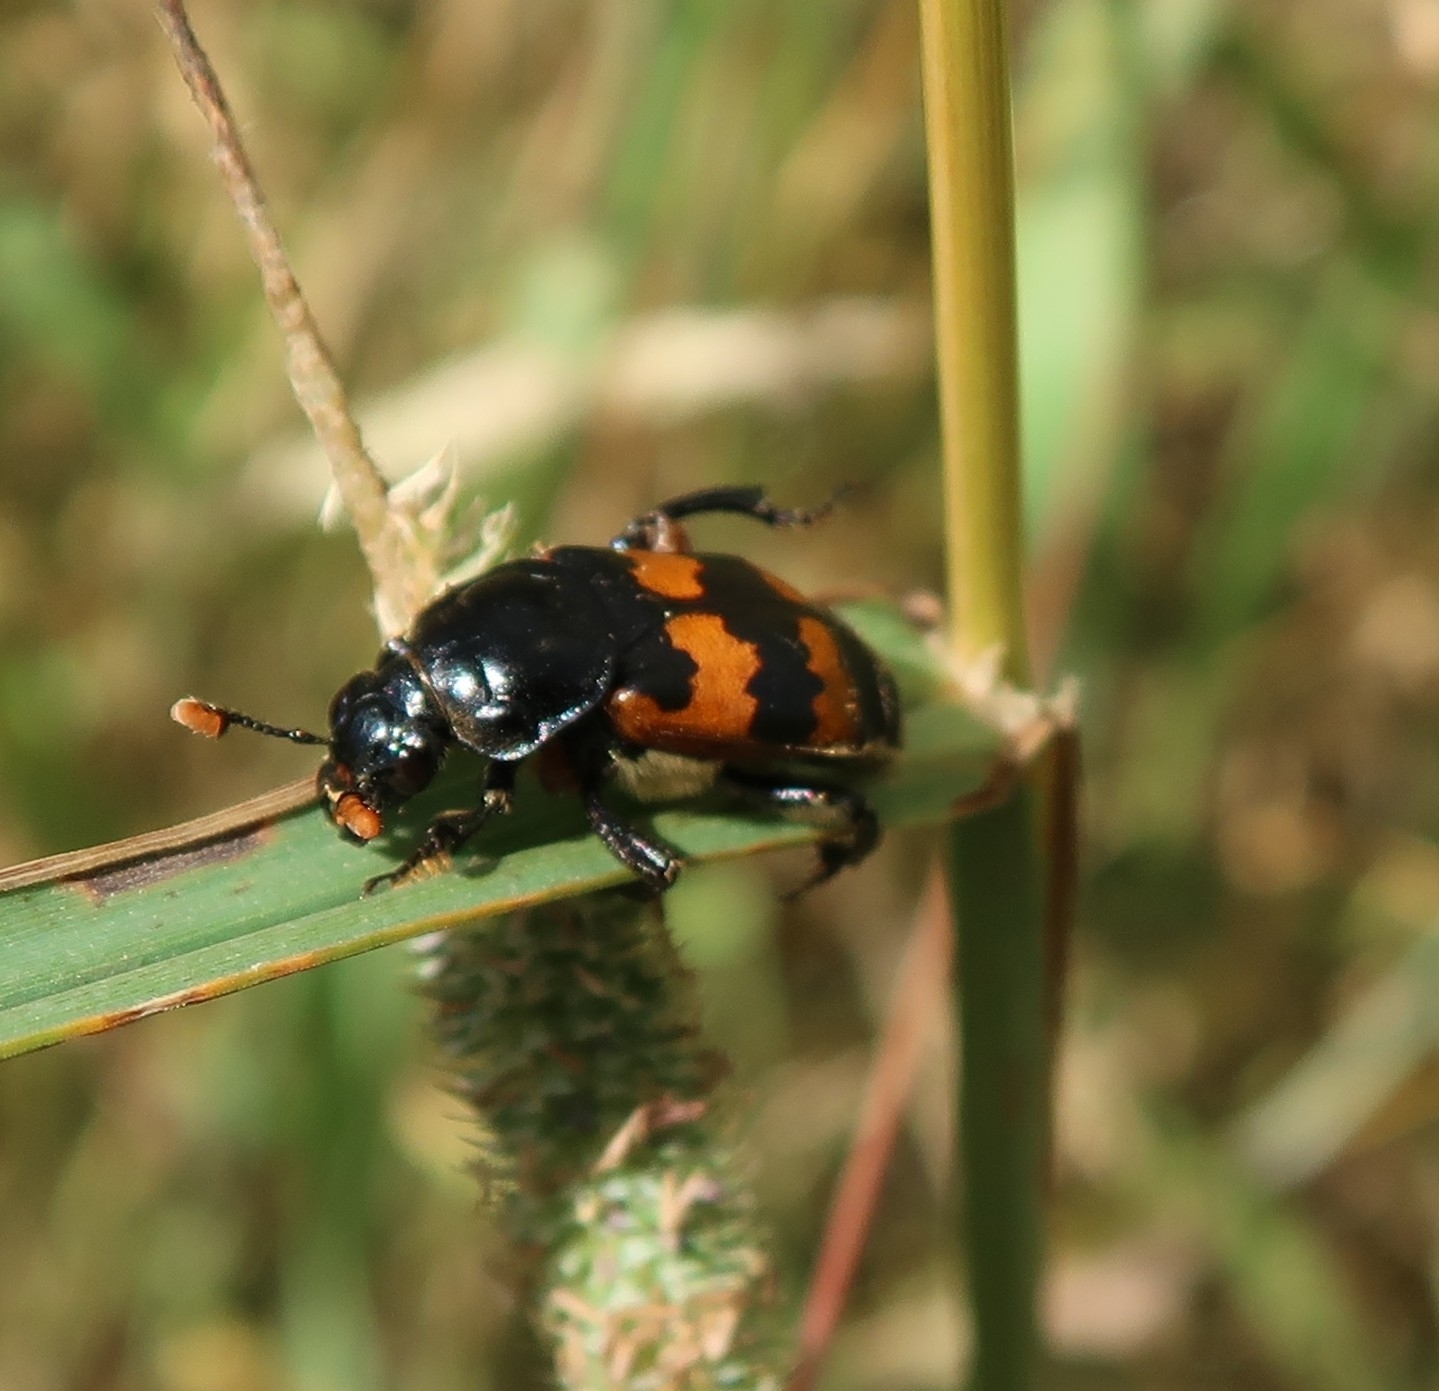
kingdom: Animalia
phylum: Arthropoda
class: Insecta
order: Coleoptera
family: Staphylinidae
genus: Nicrophorus
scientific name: Nicrophorus vespillo
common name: Common burying beetle
